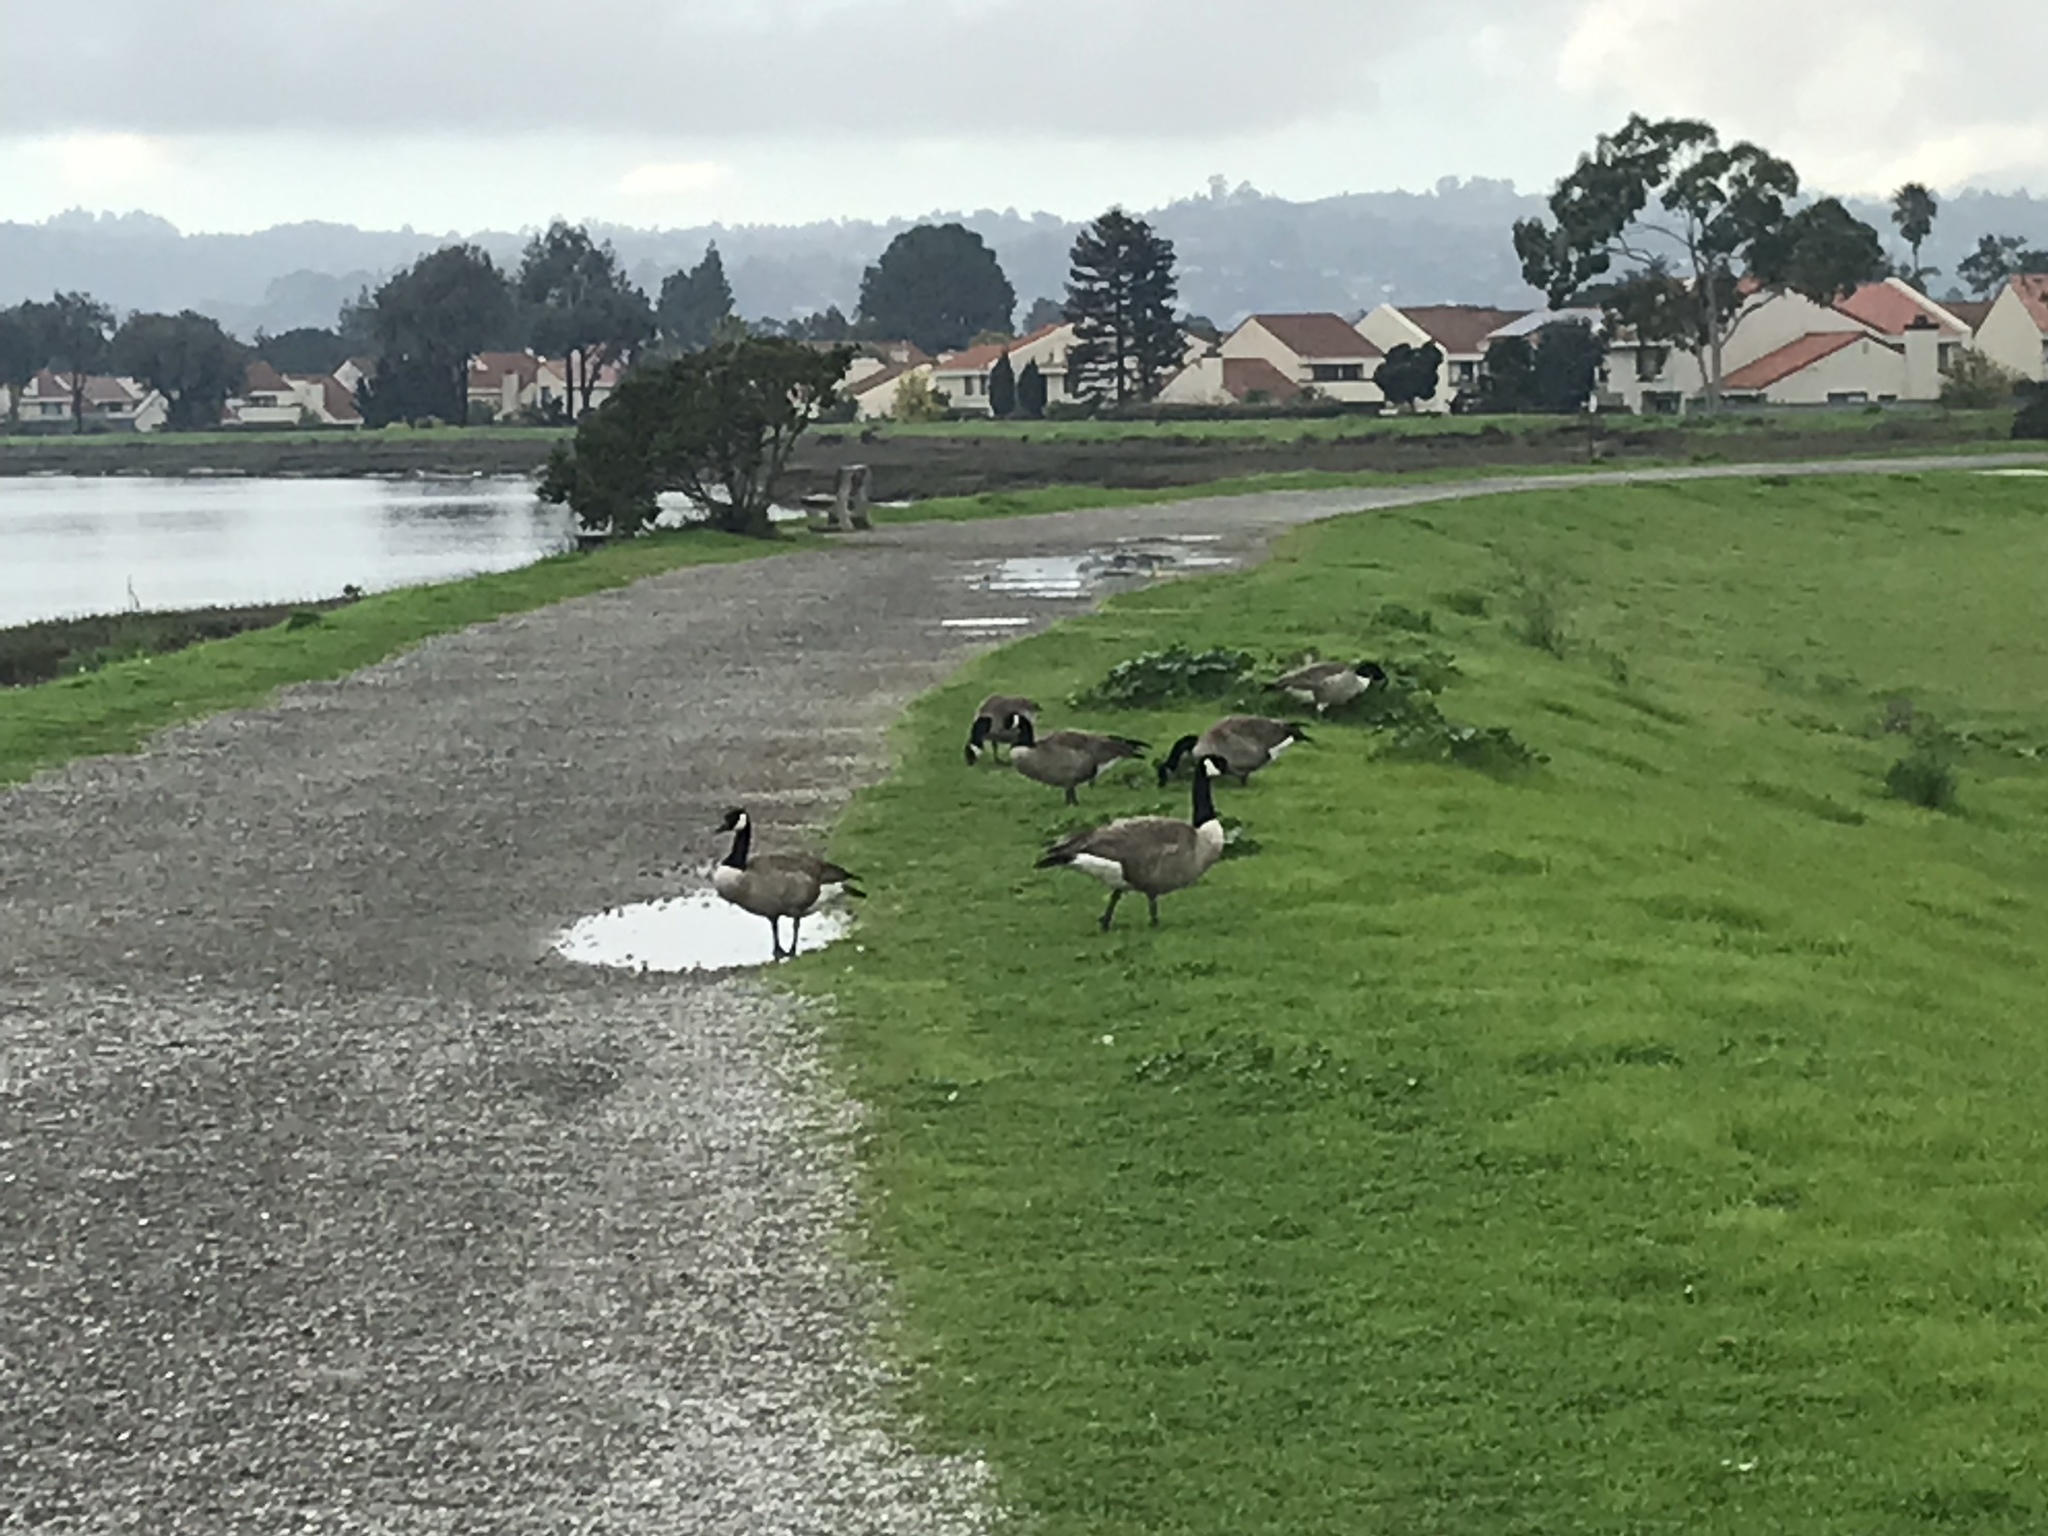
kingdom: Animalia
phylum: Chordata
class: Aves
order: Anseriformes
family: Anatidae
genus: Branta
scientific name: Branta canadensis
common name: Canada goose
